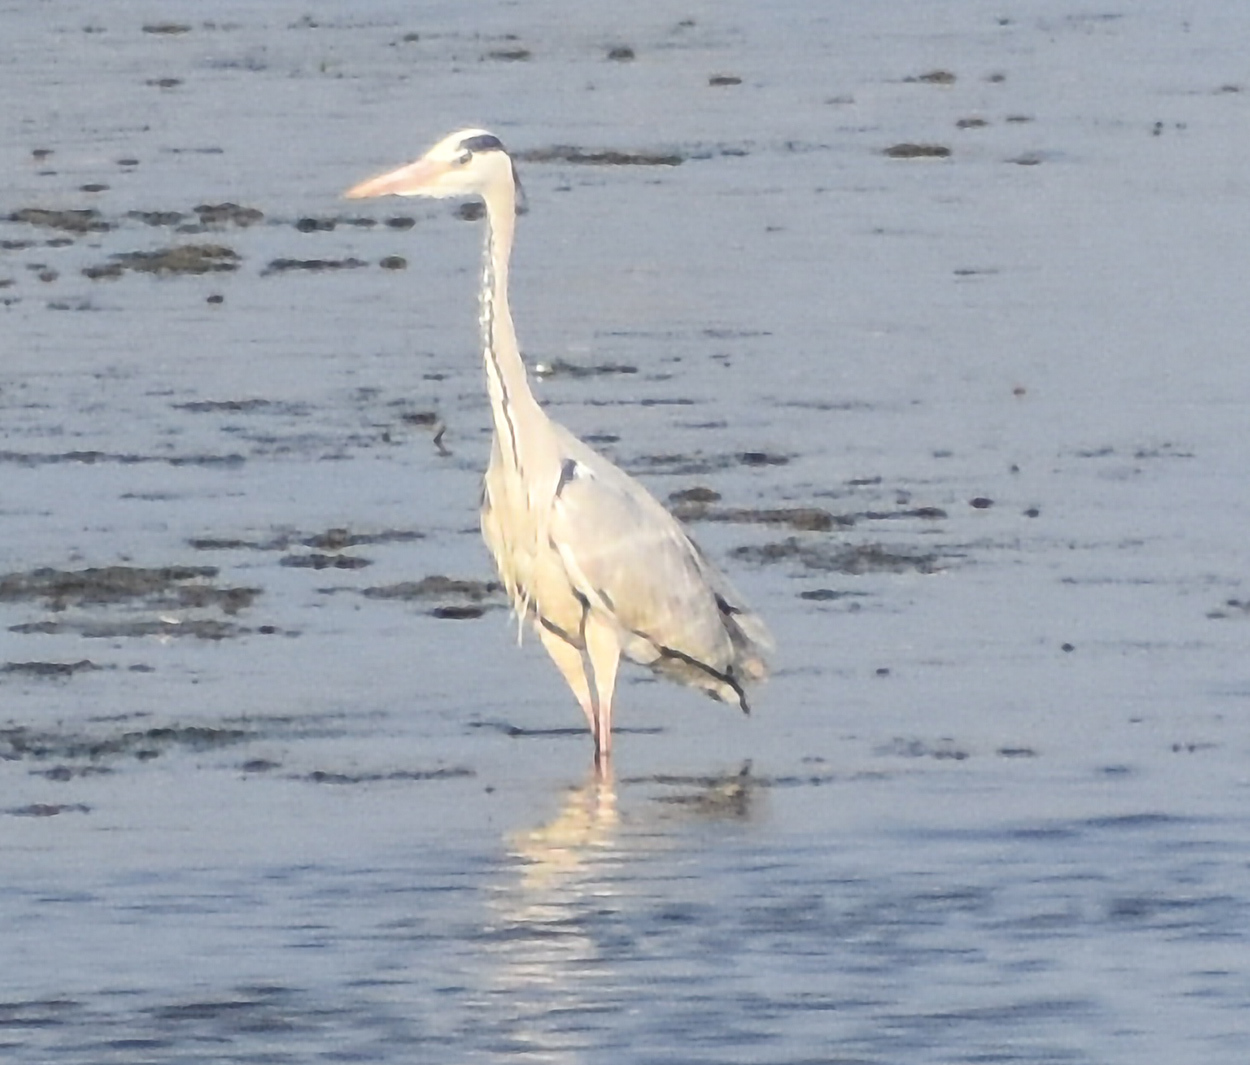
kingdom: Animalia
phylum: Chordata
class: Aves
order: Pelecaniformes
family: Ardeidae
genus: Ardea
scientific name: Ardea cinerea
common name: Grey heron
